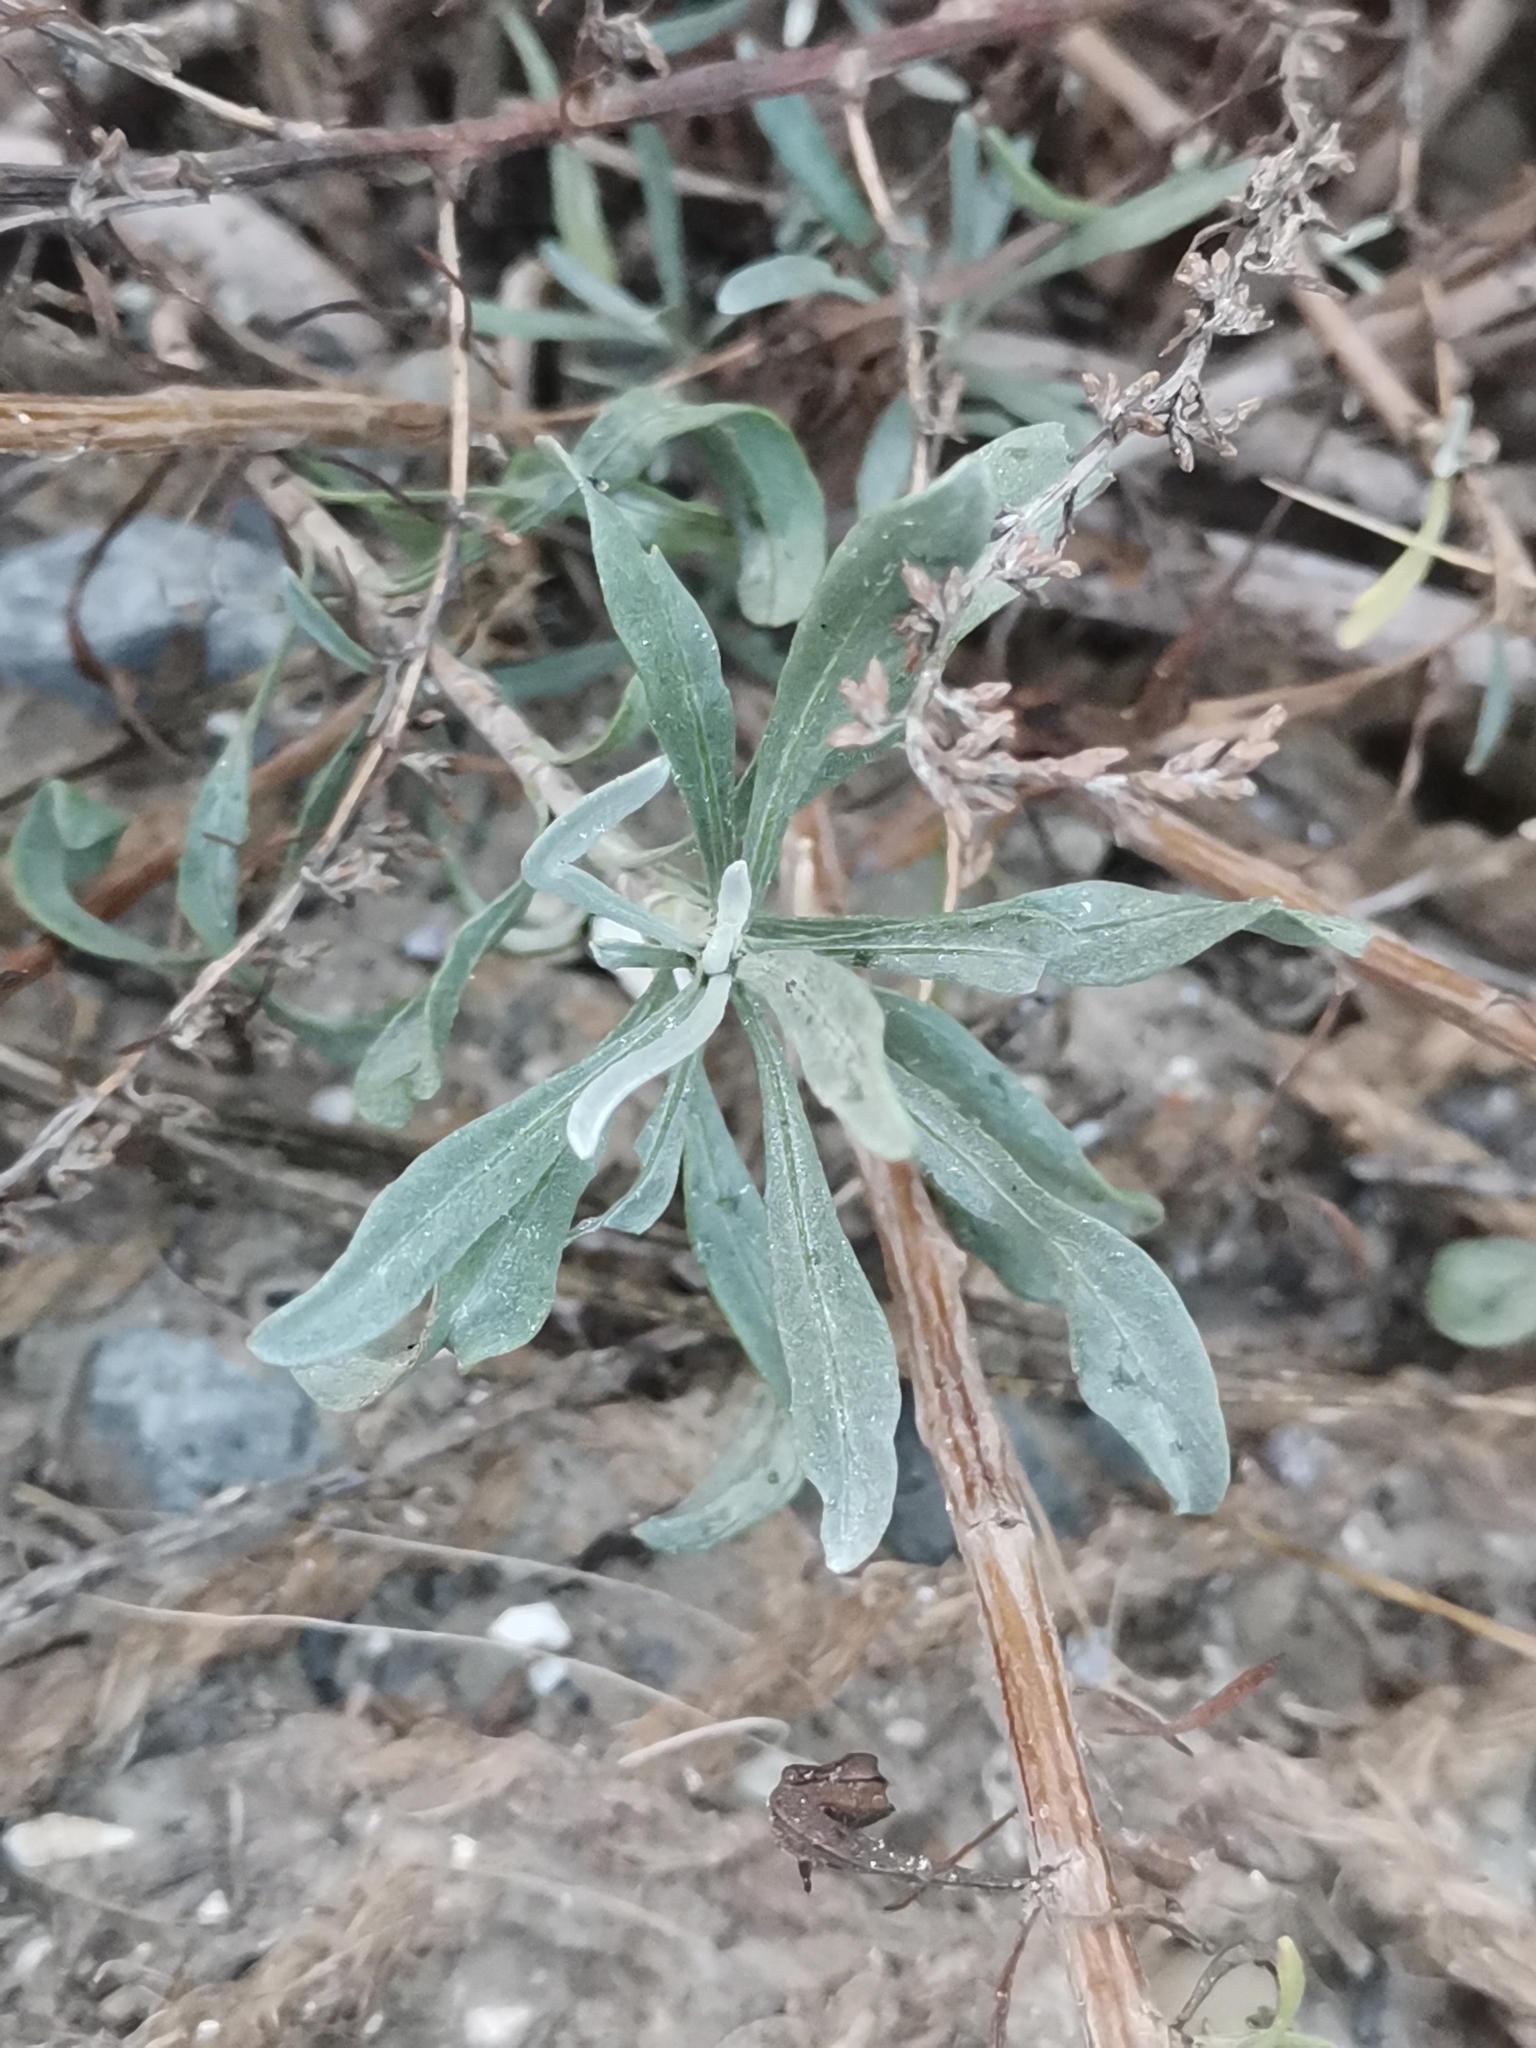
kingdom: Plantae
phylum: Tracheophyta
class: Magnoliopsida
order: Asterales
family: Asteraceae
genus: Artemisia
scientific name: Artemisia caerulescens
